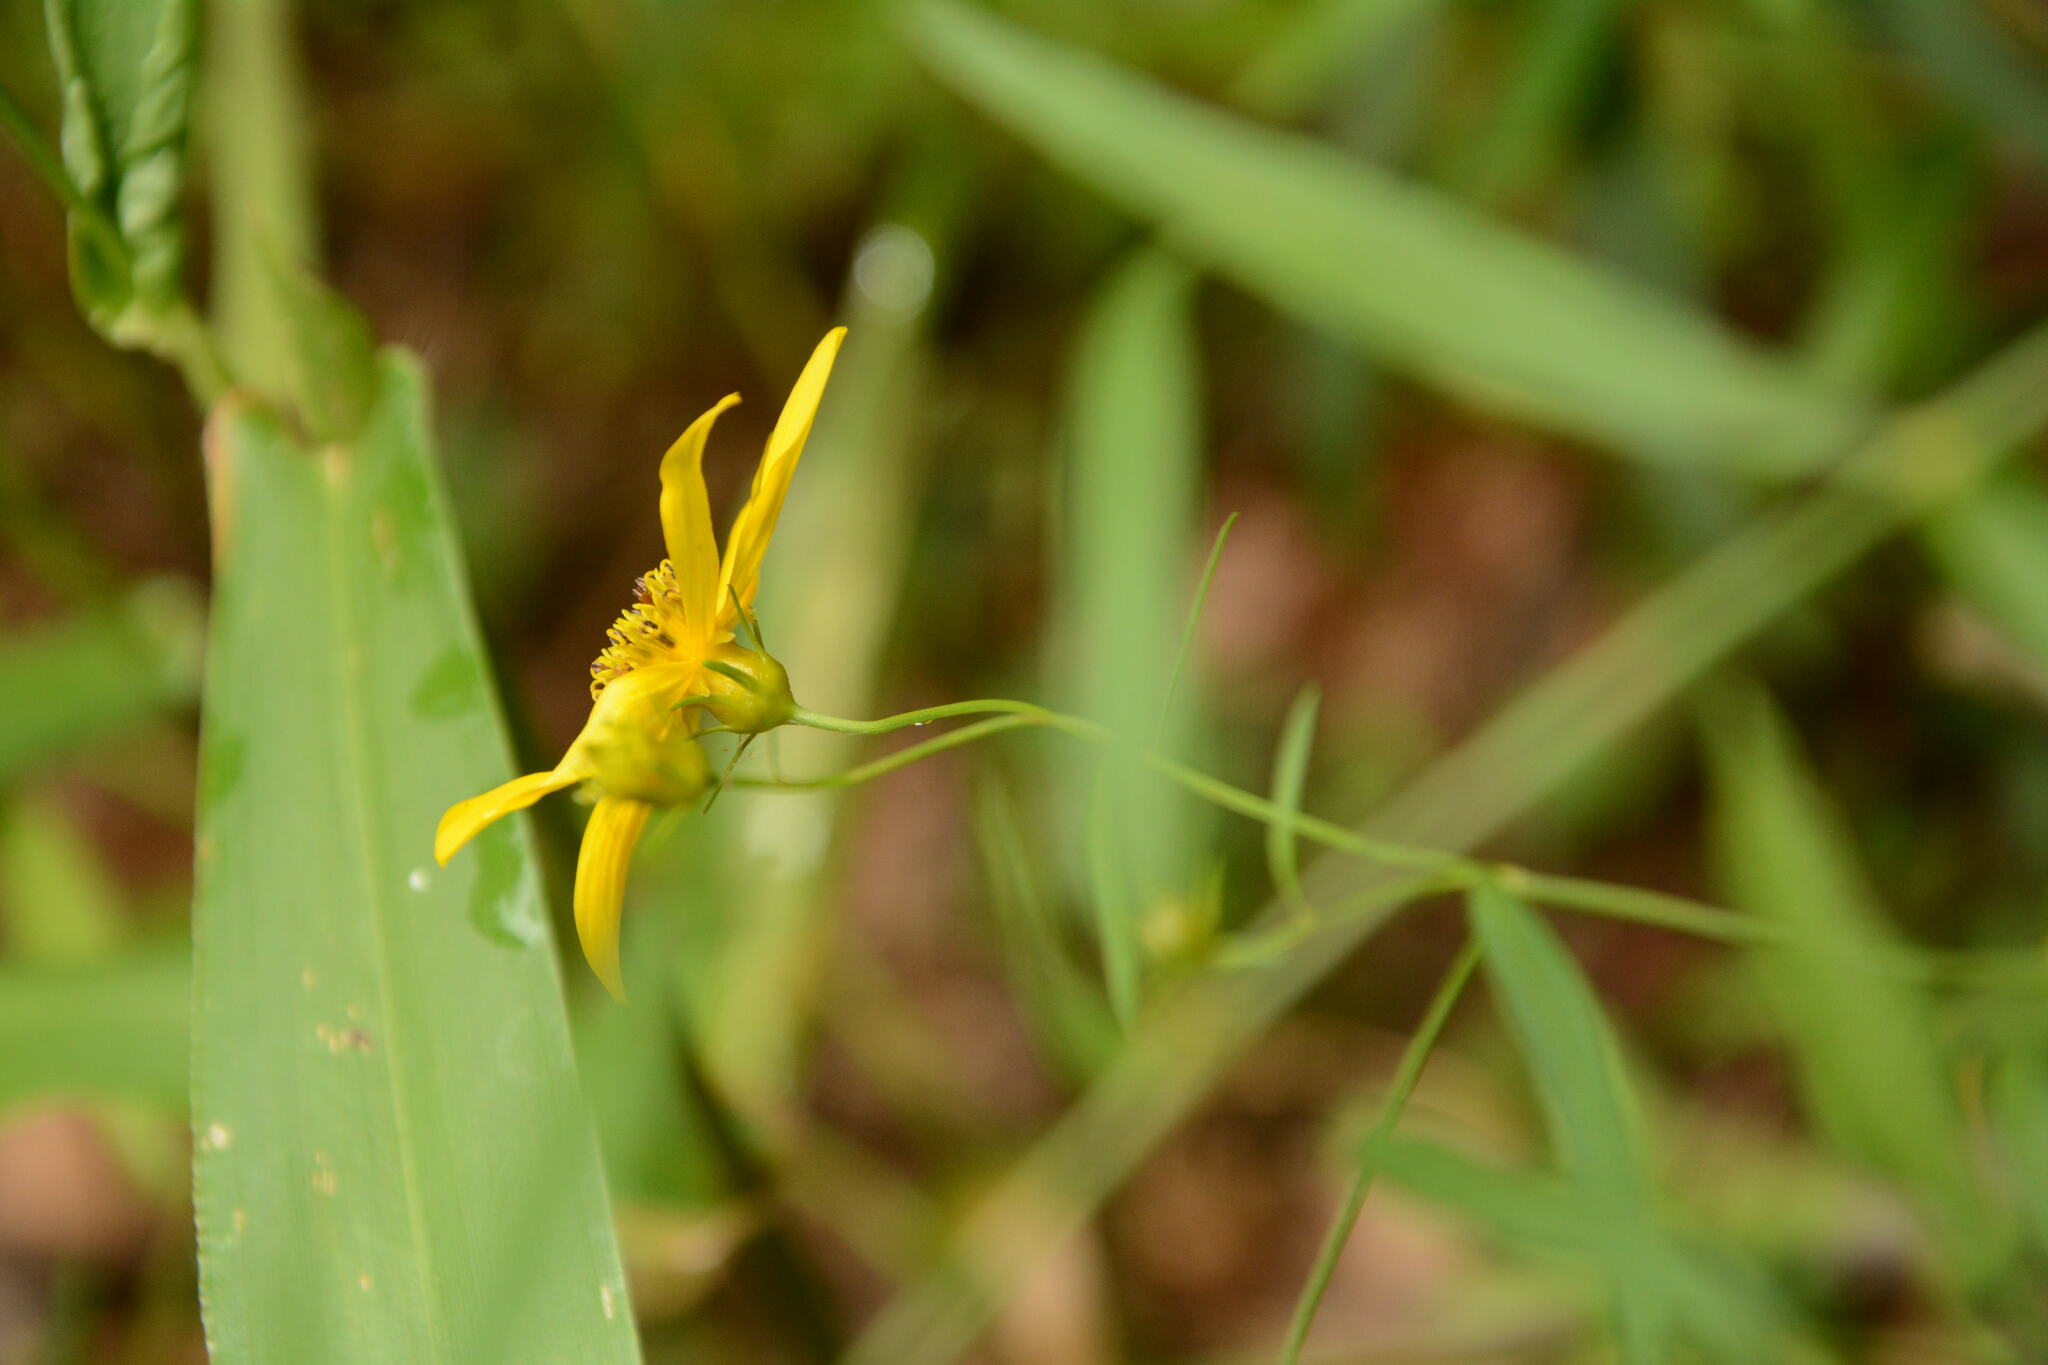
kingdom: Plantae
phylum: Tracheophyta
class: Magnoliopsida
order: Asterales
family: Asteraceae
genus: Coreopsis
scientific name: Coreopsis major
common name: Forest tickseed
